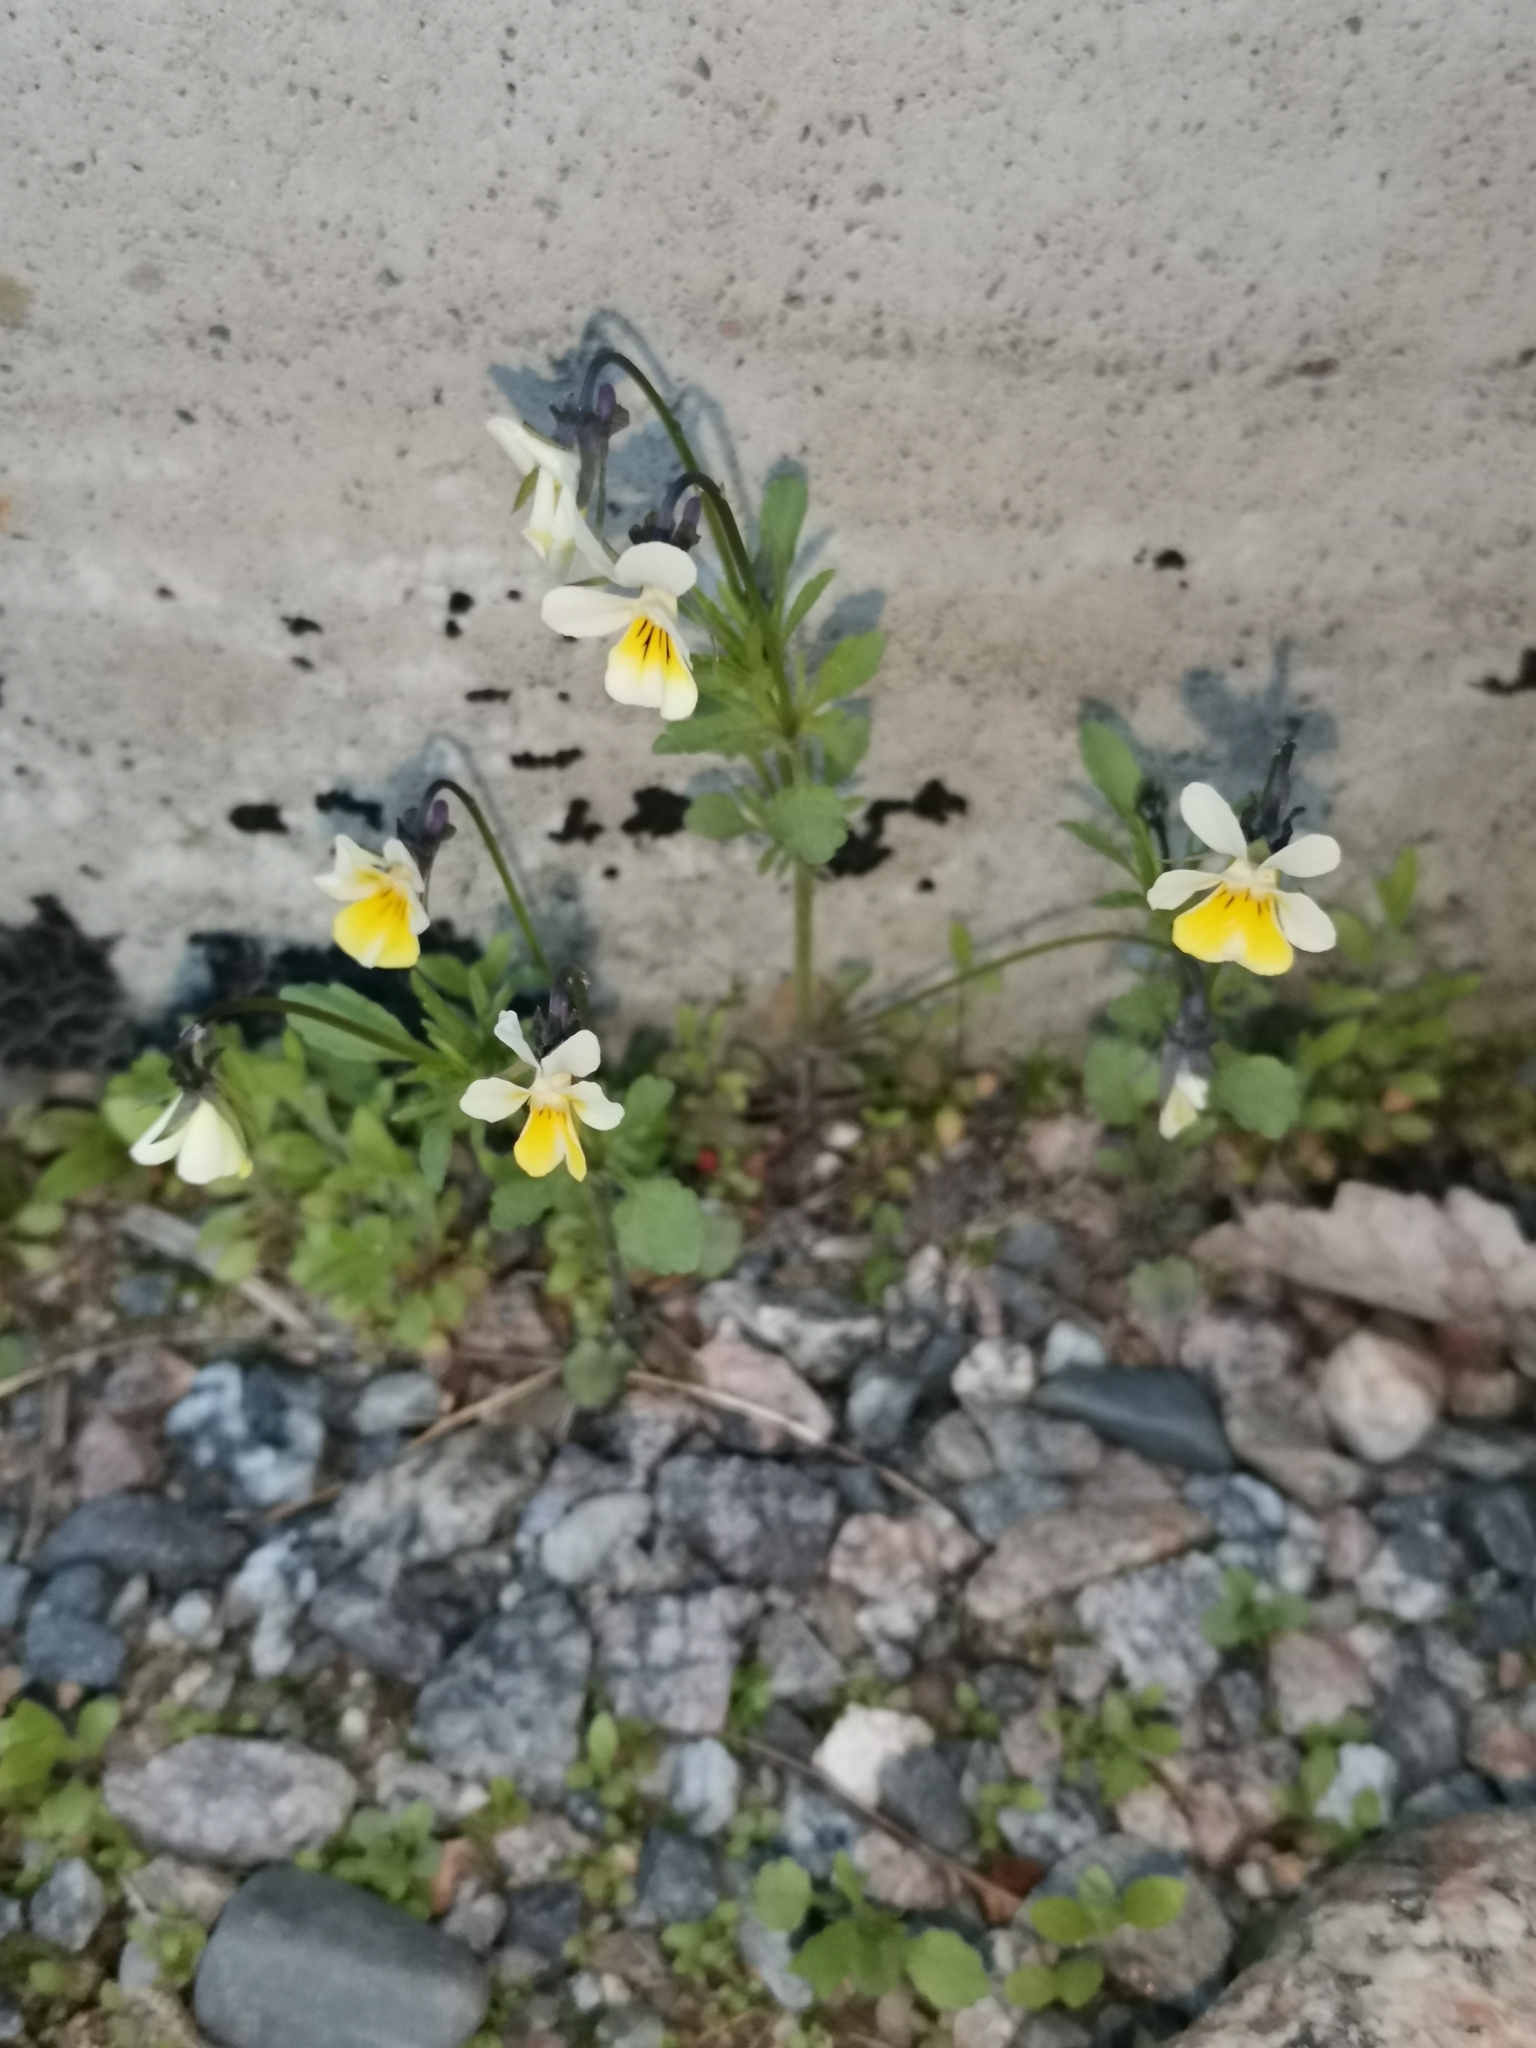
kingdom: Plantae
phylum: Tracheophyta
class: Magnoliopsida
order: Malpighiales
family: Violaceae
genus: Viola
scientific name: Viola arvensis
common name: Field pansy
